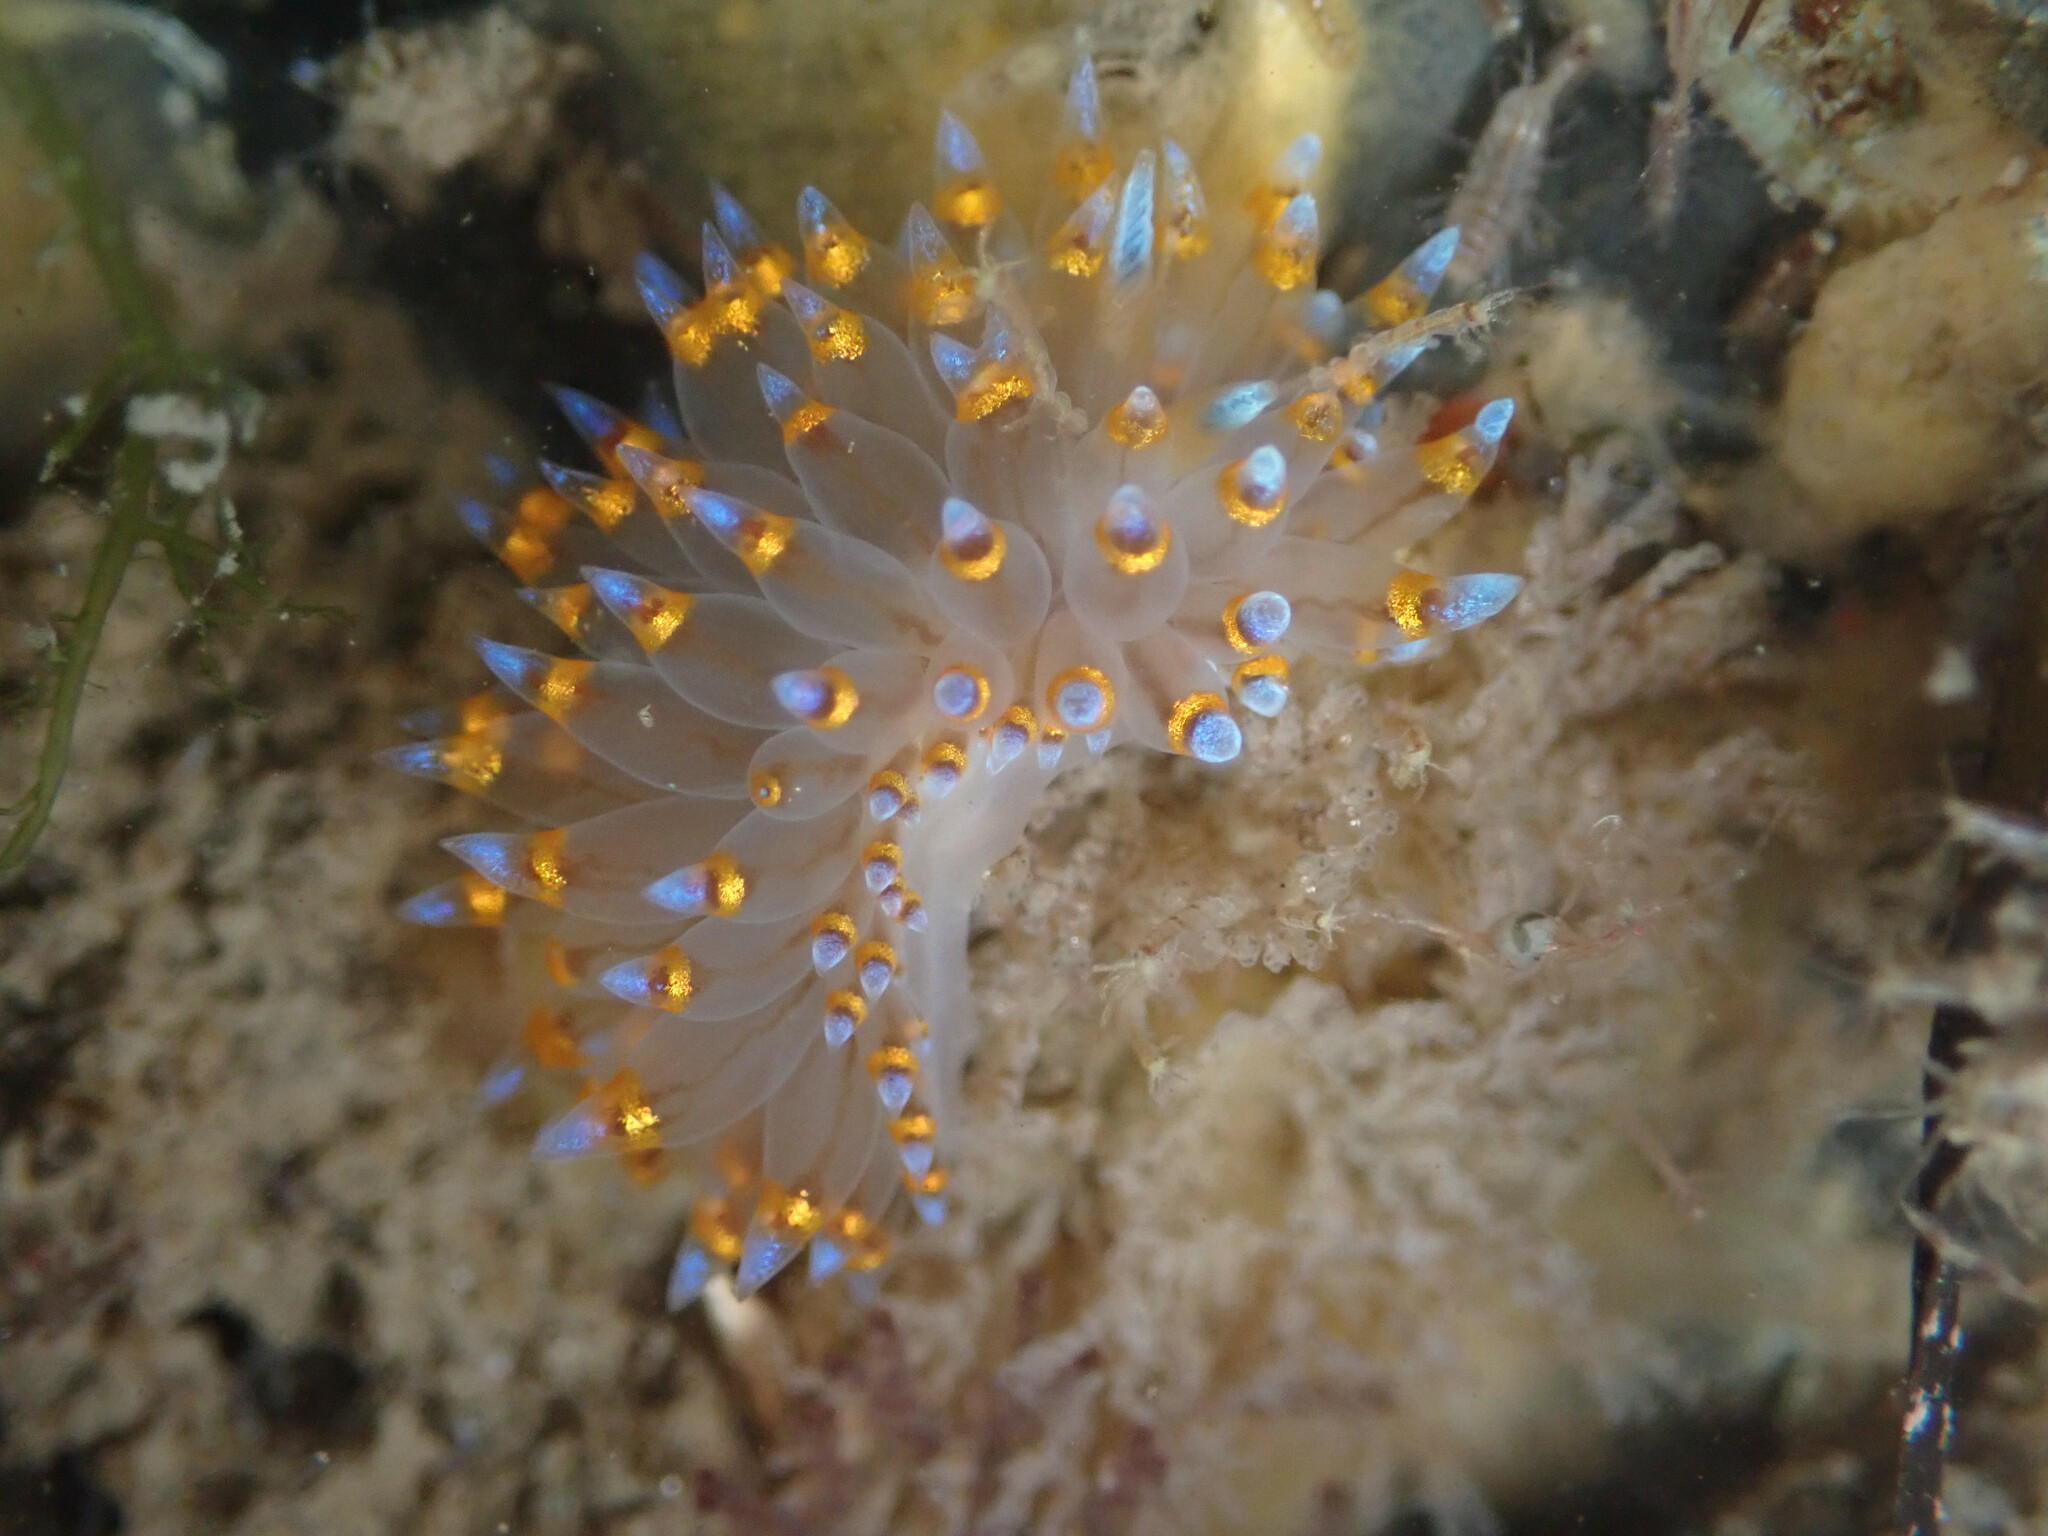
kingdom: Animalia
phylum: Mollusca
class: Gastropoda
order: Nudibranchia
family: Janolidae
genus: Antiopella
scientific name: Antiopella barbarensis
